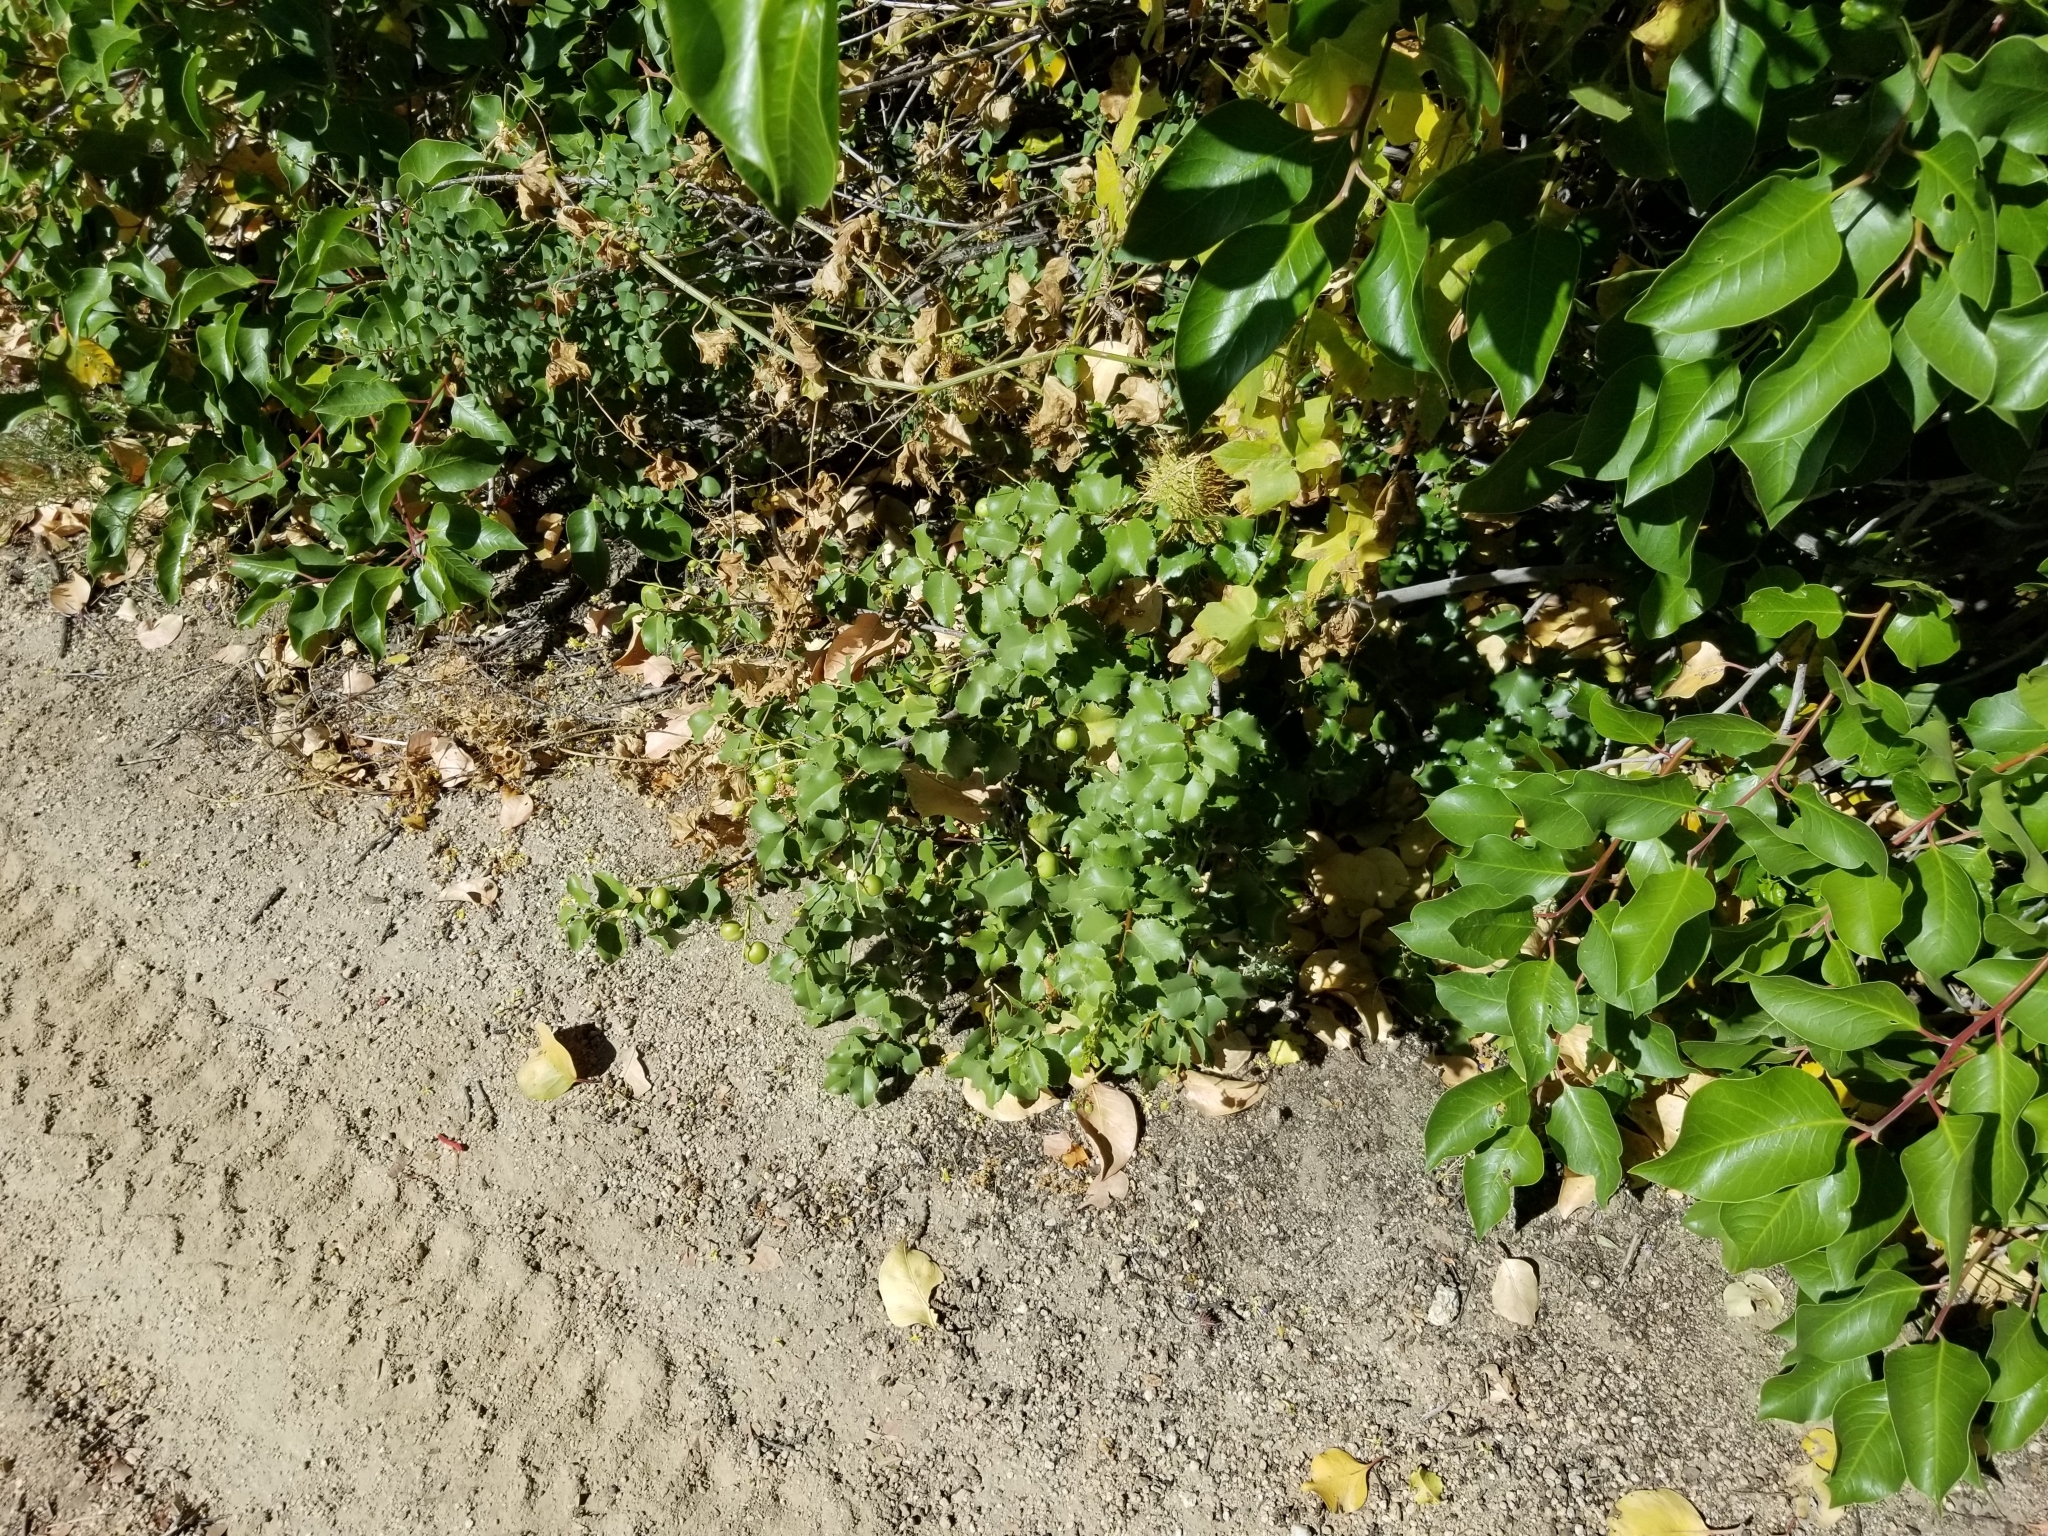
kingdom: Plantae
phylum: Tracheophyta
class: Magnoliopsida
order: Rosales
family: Rosaceae
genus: Prunus
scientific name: Prunus ilicifolia
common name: Hollyleaf cherry
